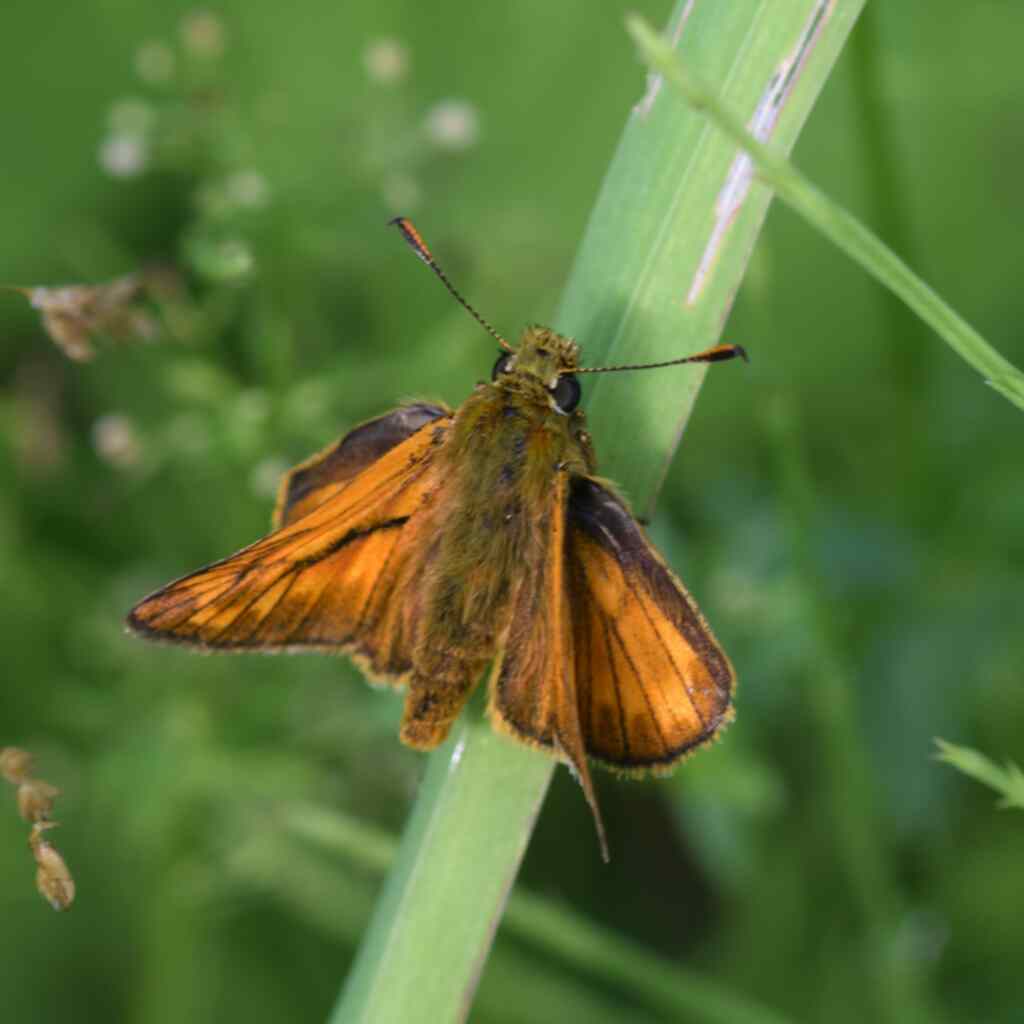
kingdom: Animalia
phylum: Arthropoda
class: Insecta
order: Lepidoptera
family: Hesperiidae
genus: Ochlodes
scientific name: Ochlodes venata
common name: Large skipper
